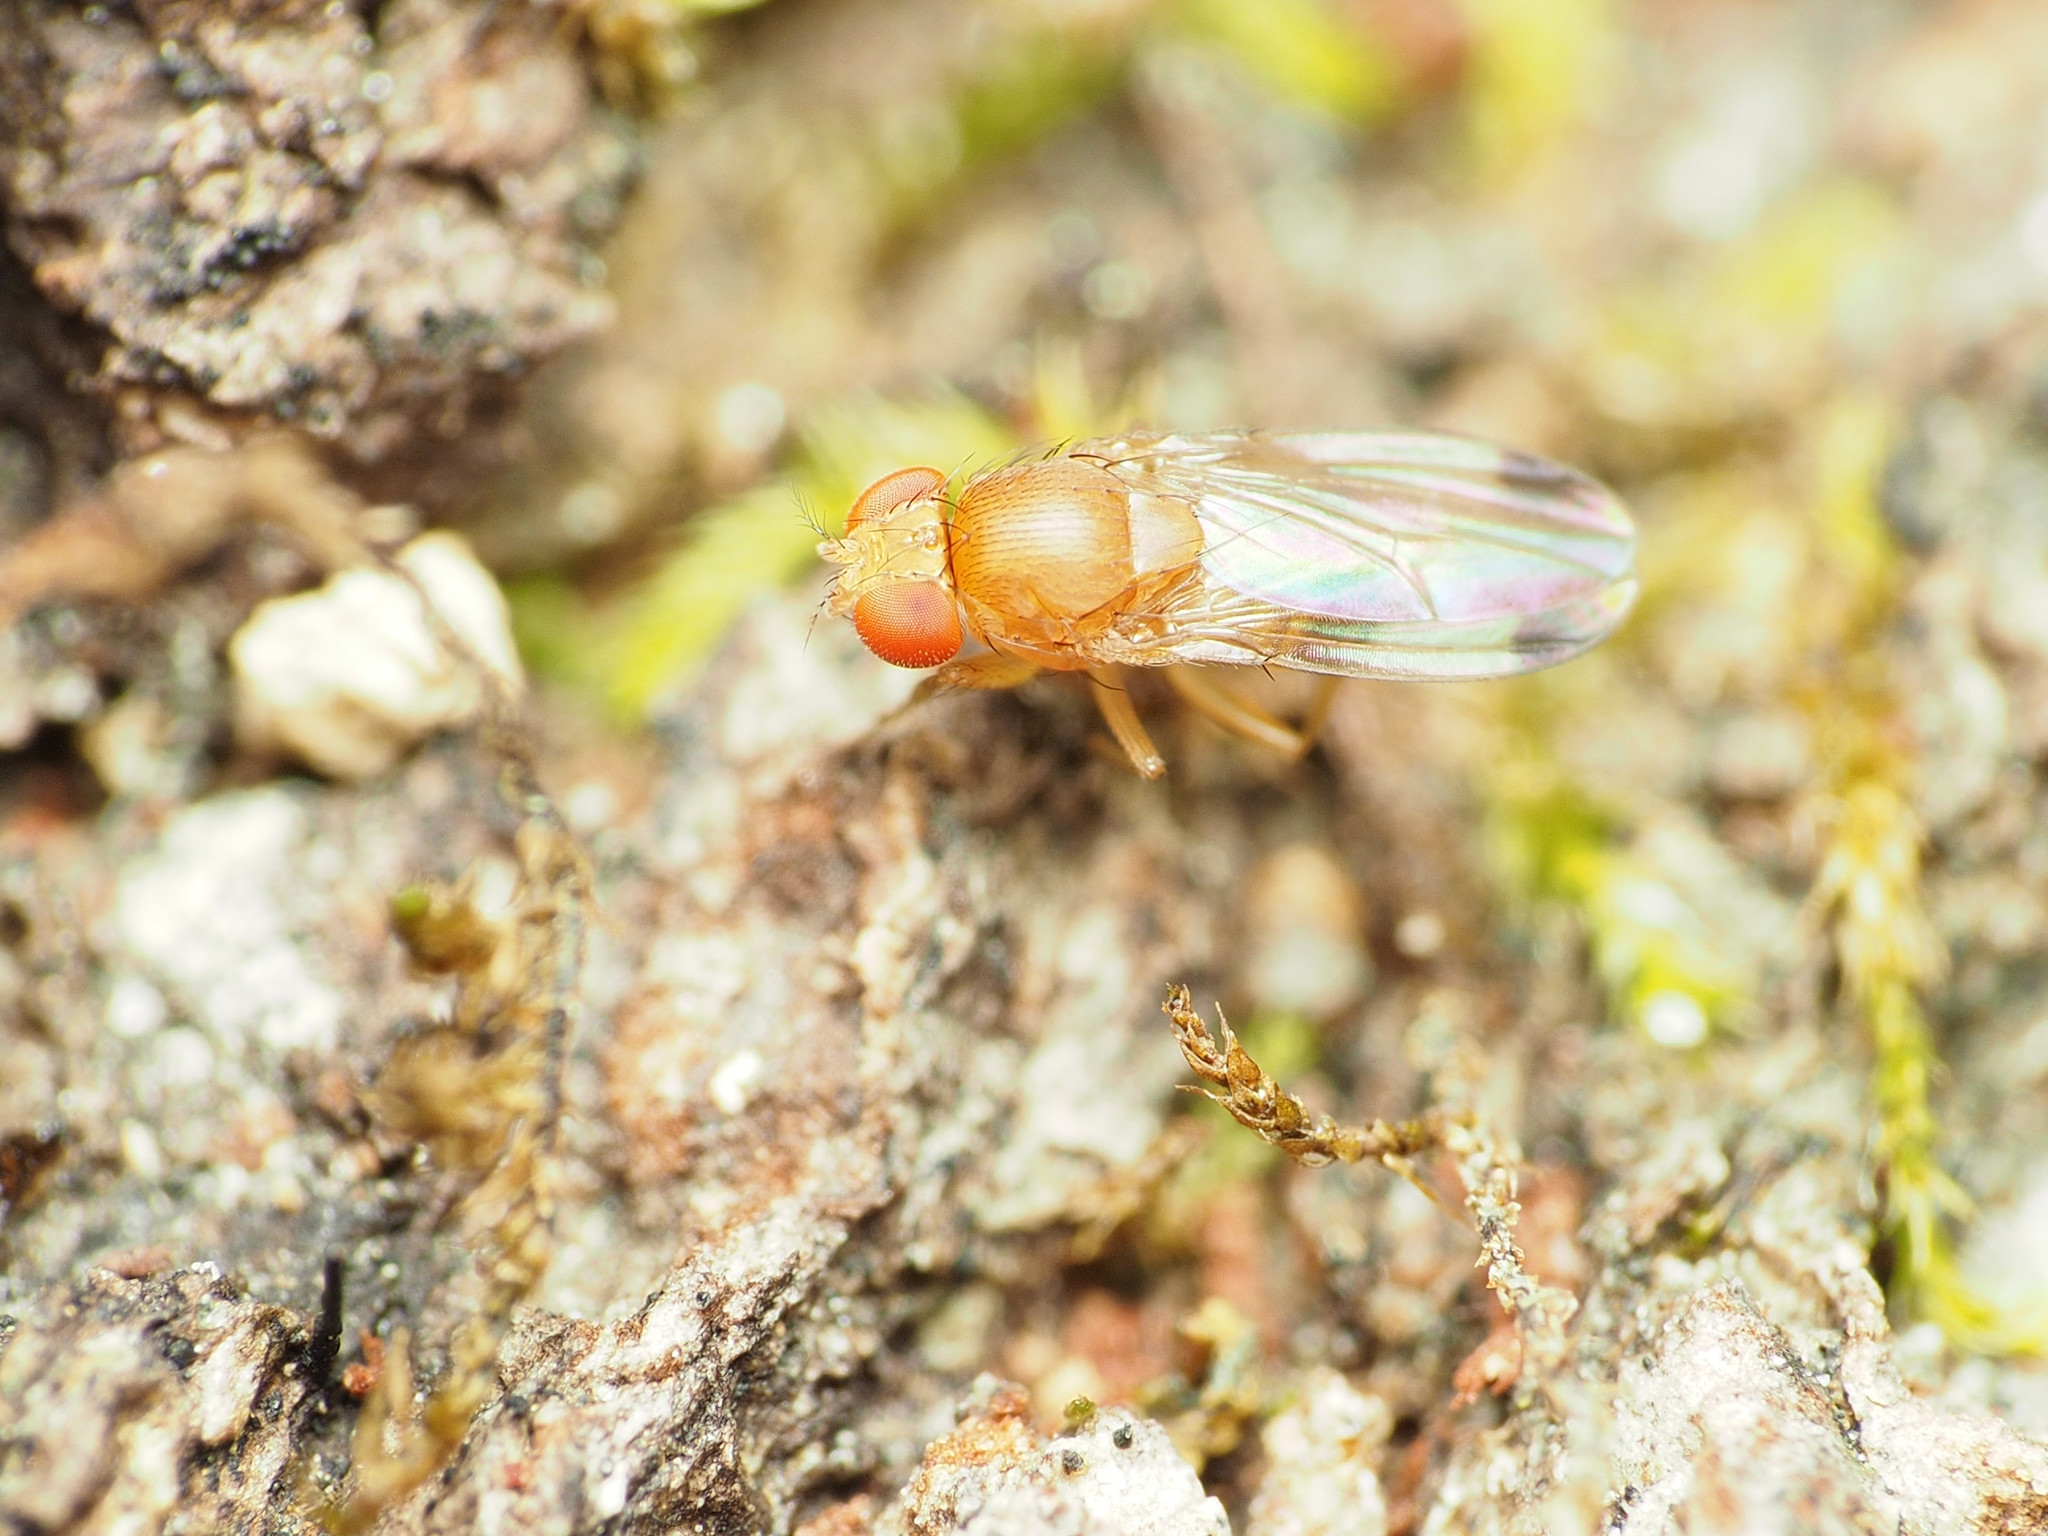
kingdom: Animalia
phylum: Arthropoda
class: Insecta
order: Diptera
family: Drosophilidae
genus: Drosophila
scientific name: Drosophila suzukii
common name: Spotted-wing drosophila
